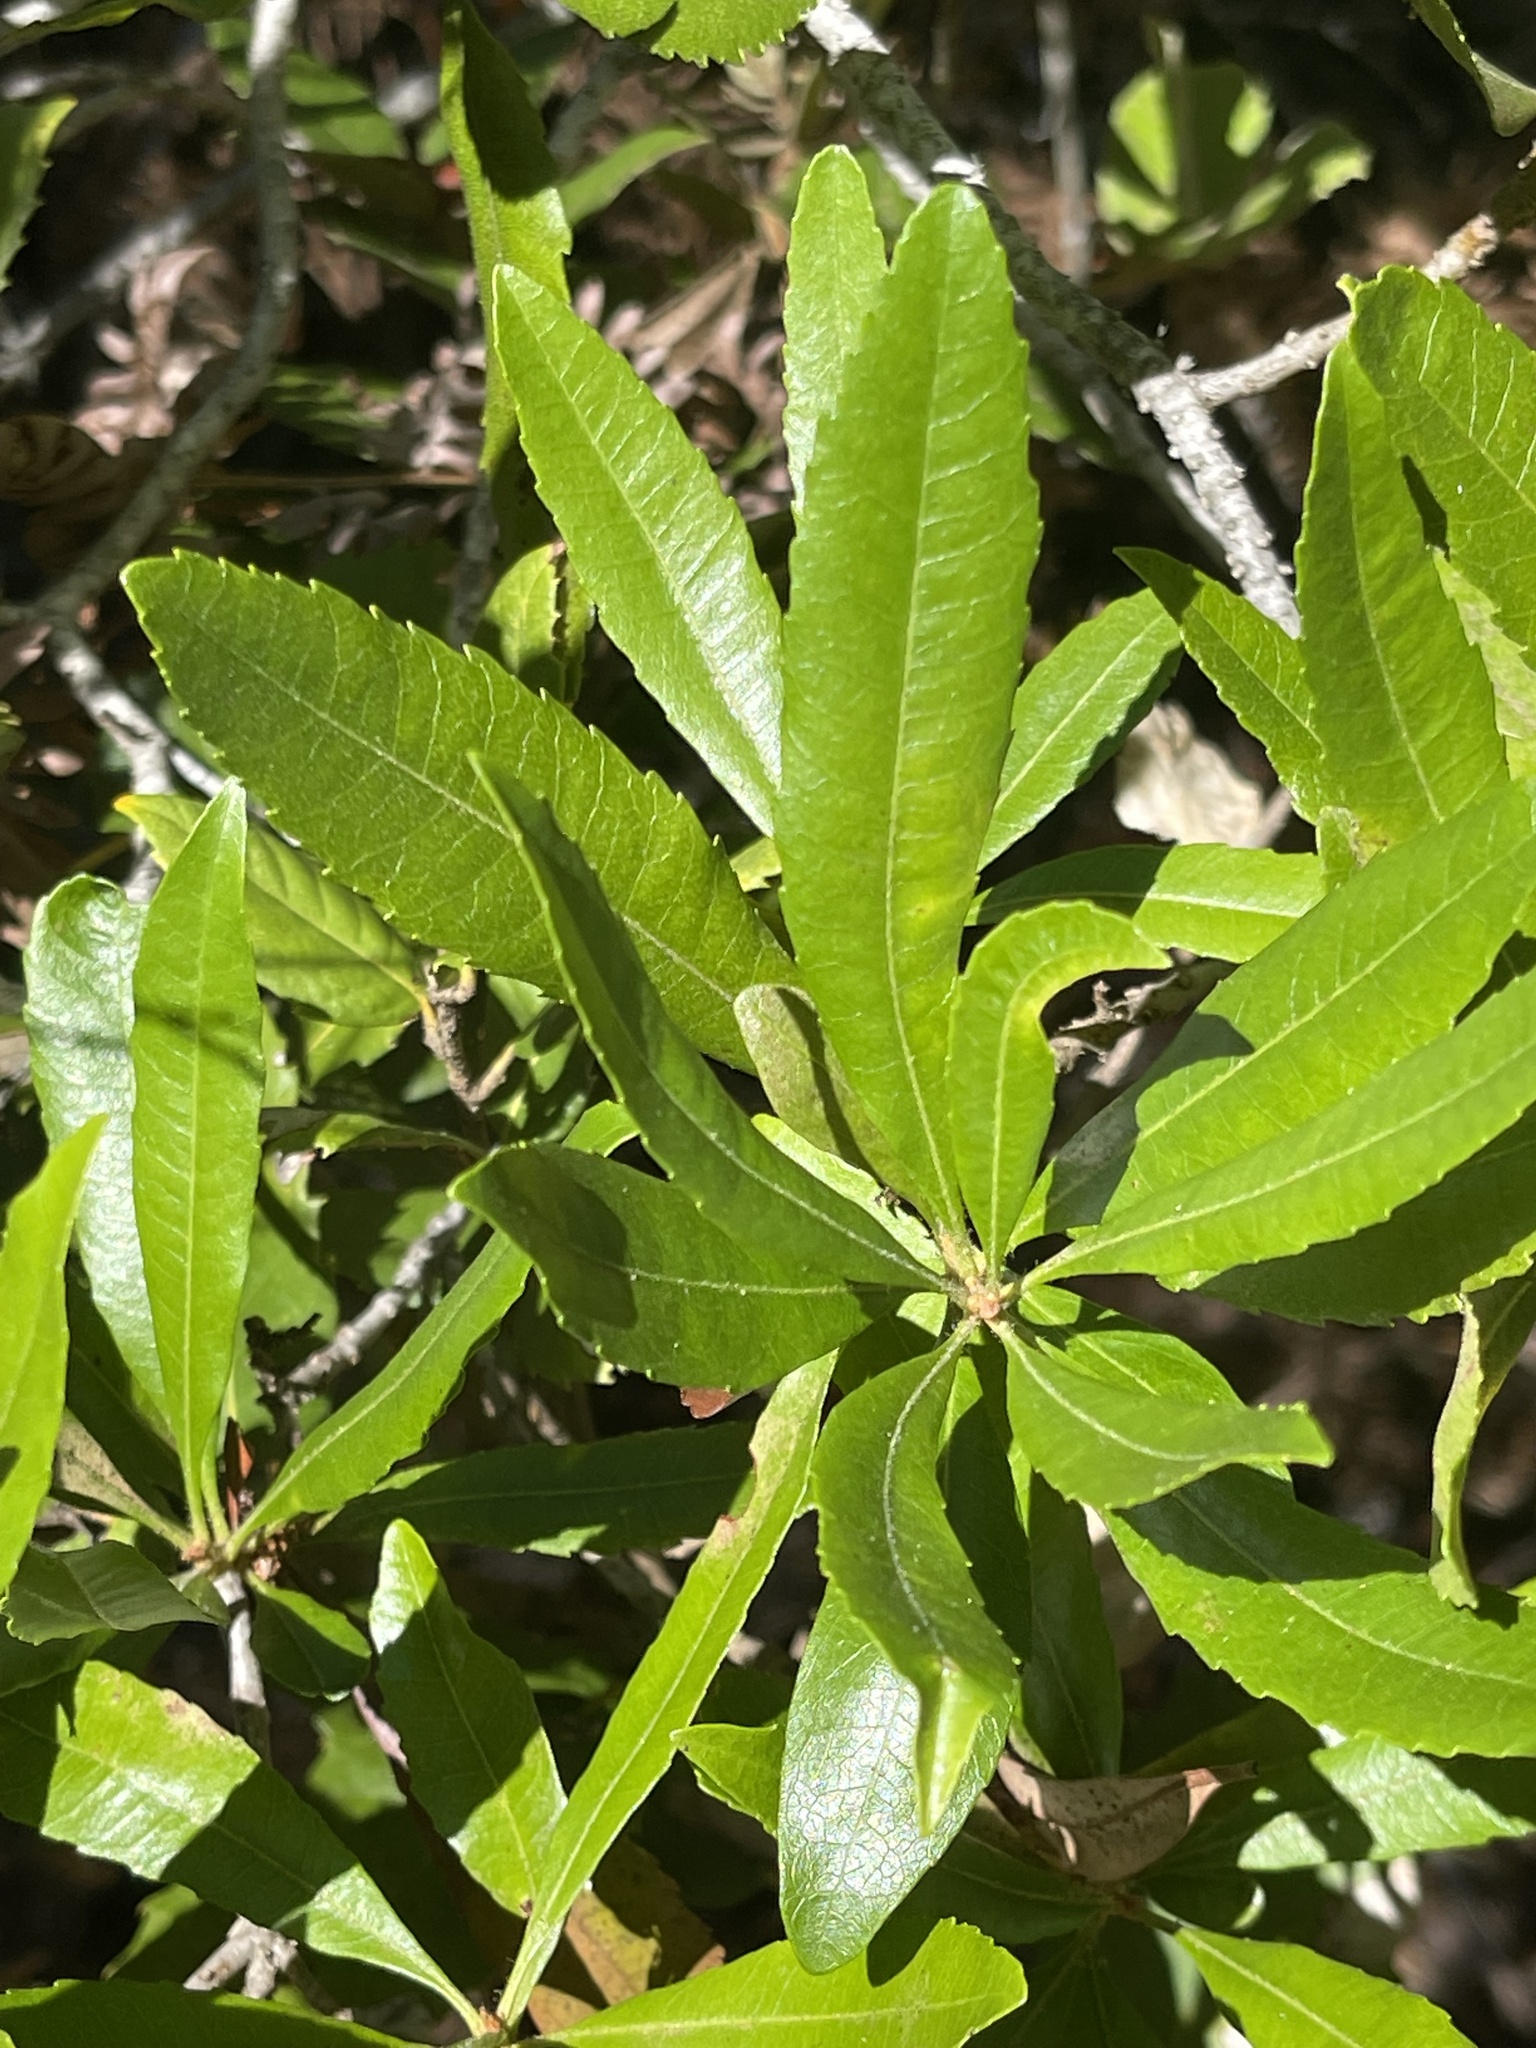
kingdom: Plantae
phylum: Tracheophyta
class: Magnoliopsida
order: Fagales
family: Myricaceae
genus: Morella
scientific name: Morella californica
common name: California wax-myrtle
